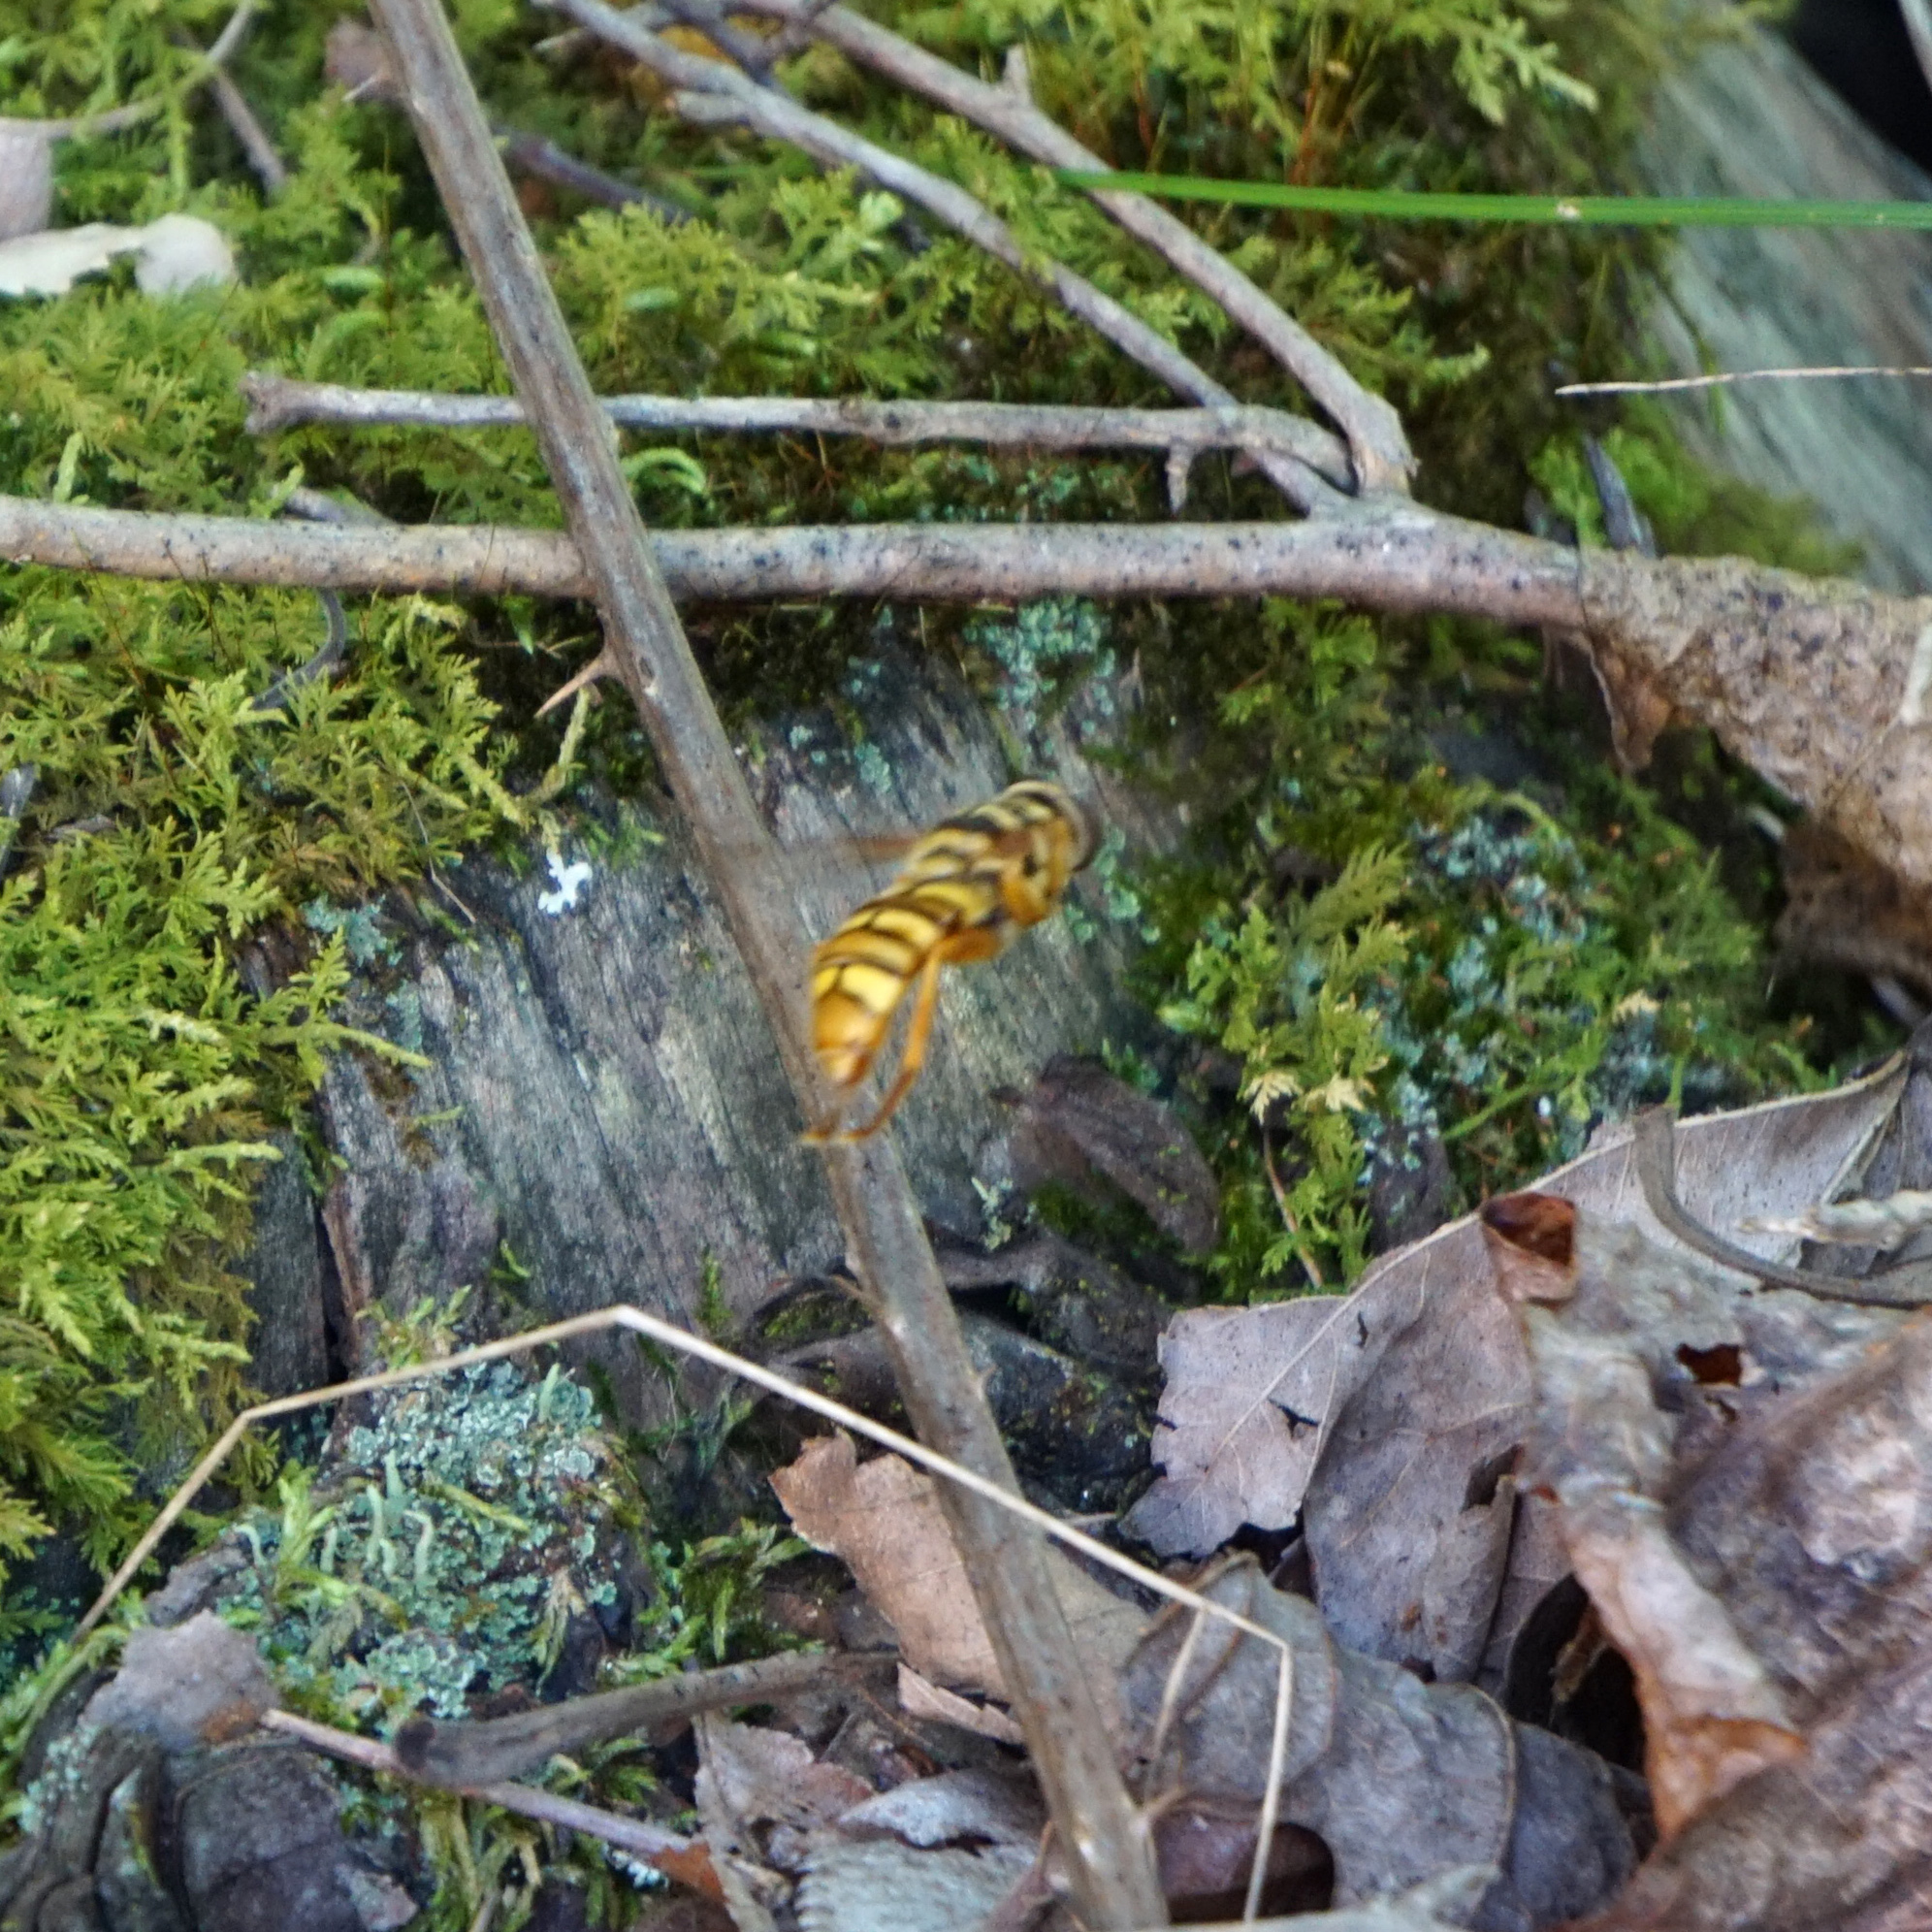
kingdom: Animalia
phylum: Arthropoda
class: Insecta
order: Diptera
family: Syrphidae
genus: Milesia
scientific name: Milesia virginiensis
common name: Virginia giant
